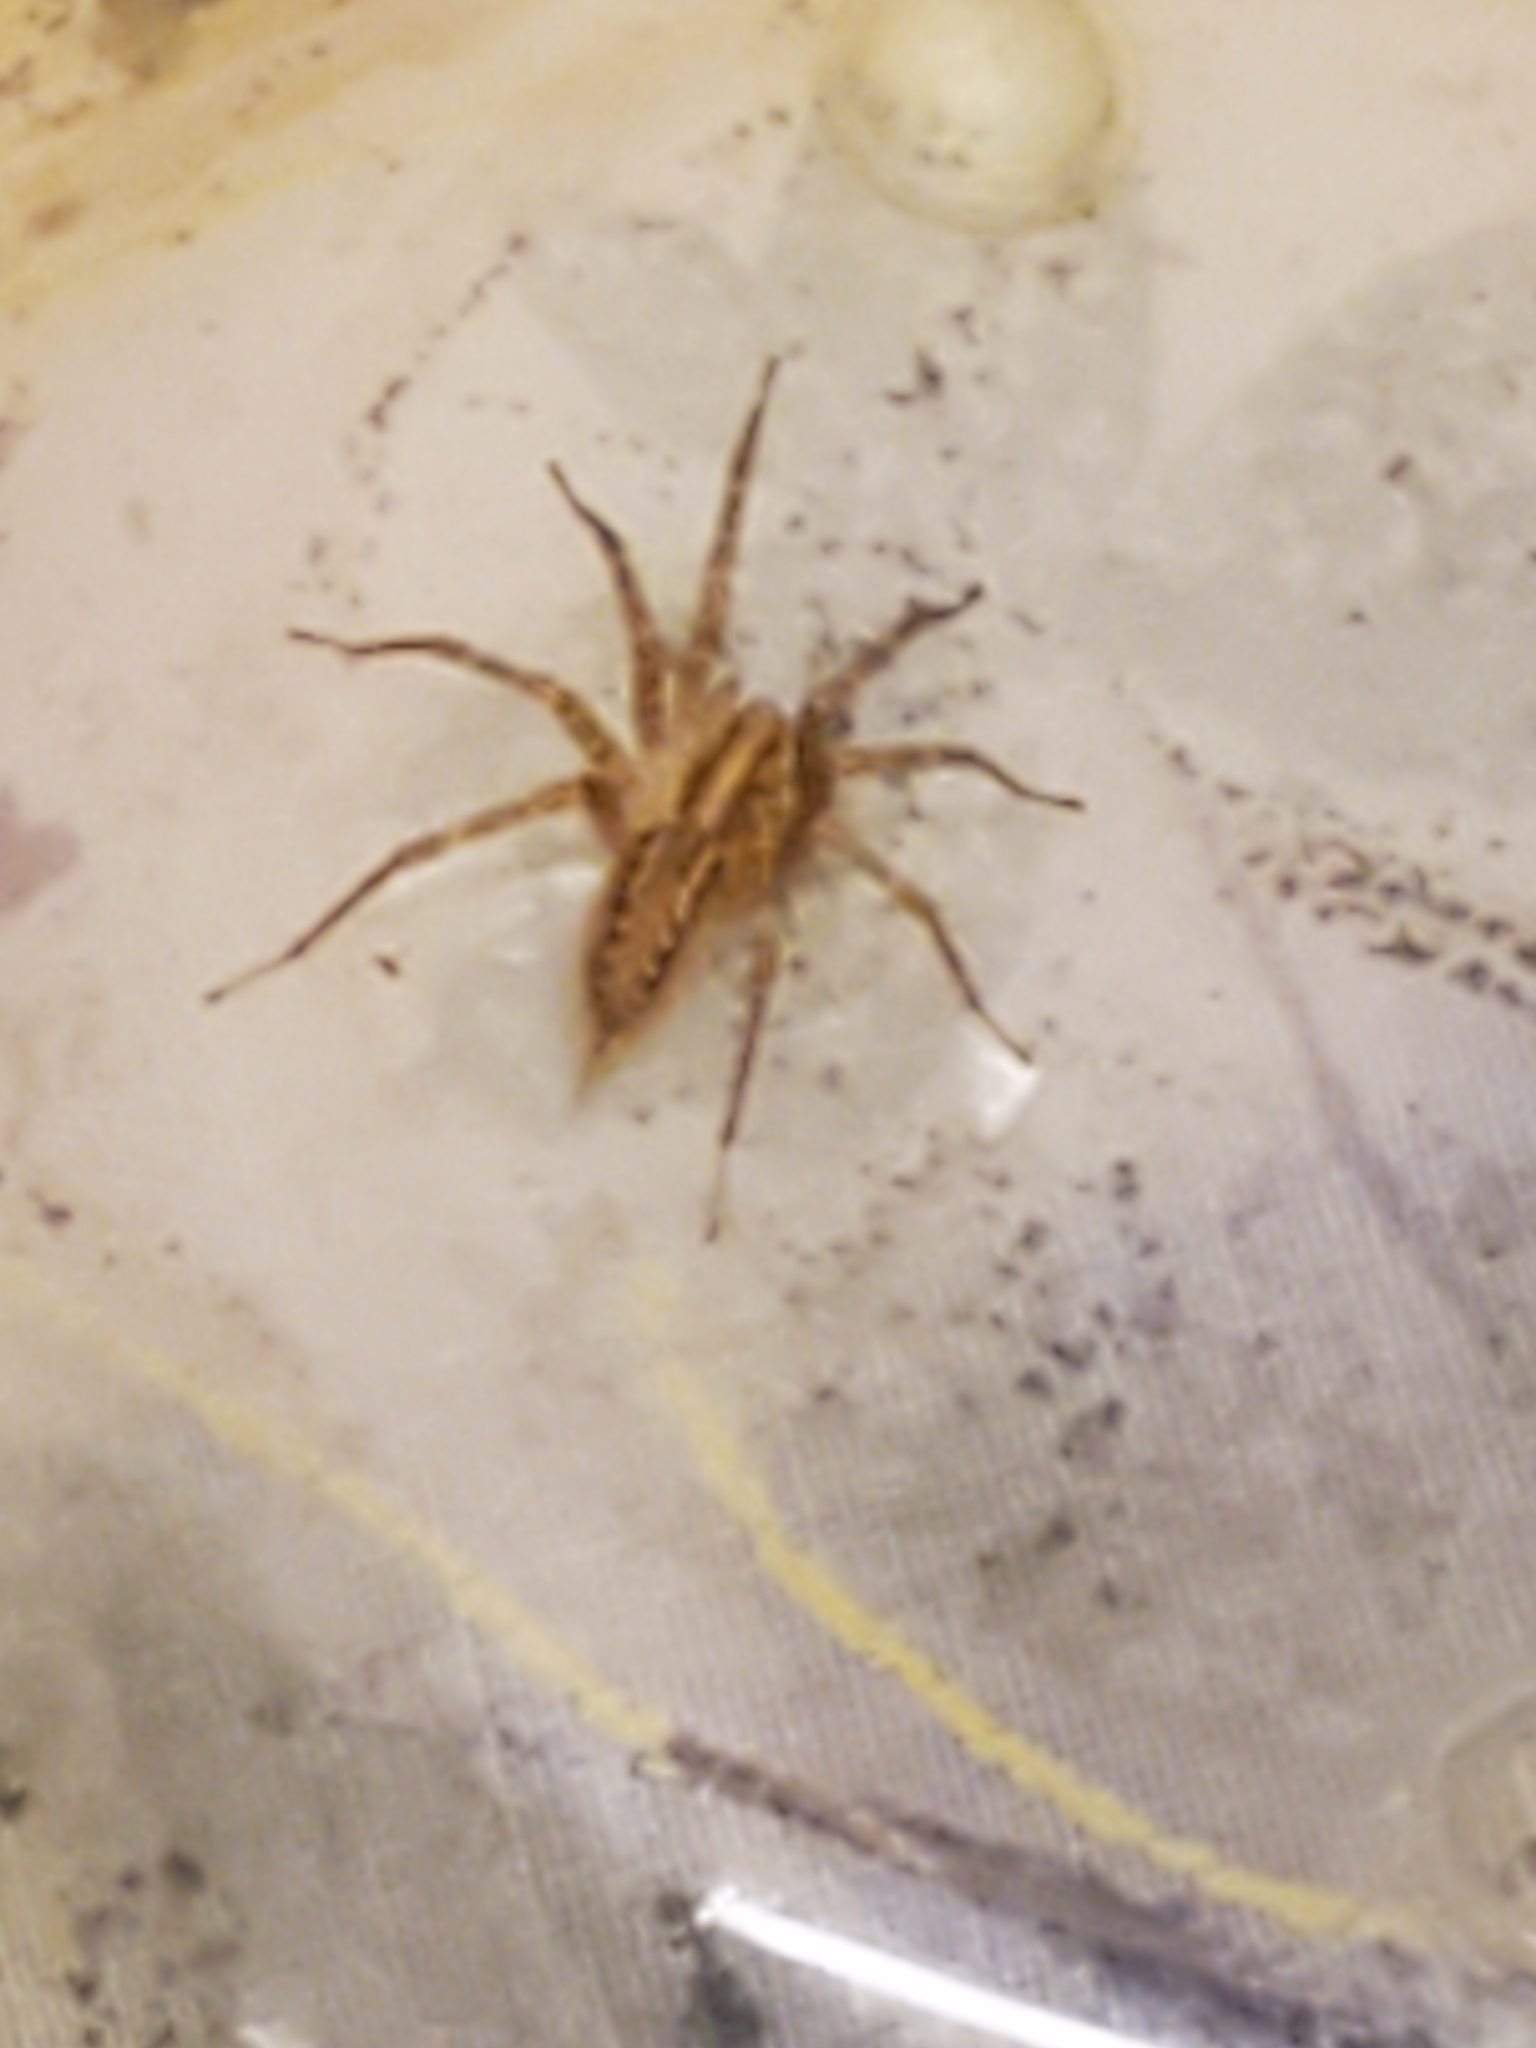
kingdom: Animalia
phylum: Arthropoda
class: Arachnida
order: Araneae
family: Agelenidae
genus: Agelenopsis
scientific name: Agelenopsis
